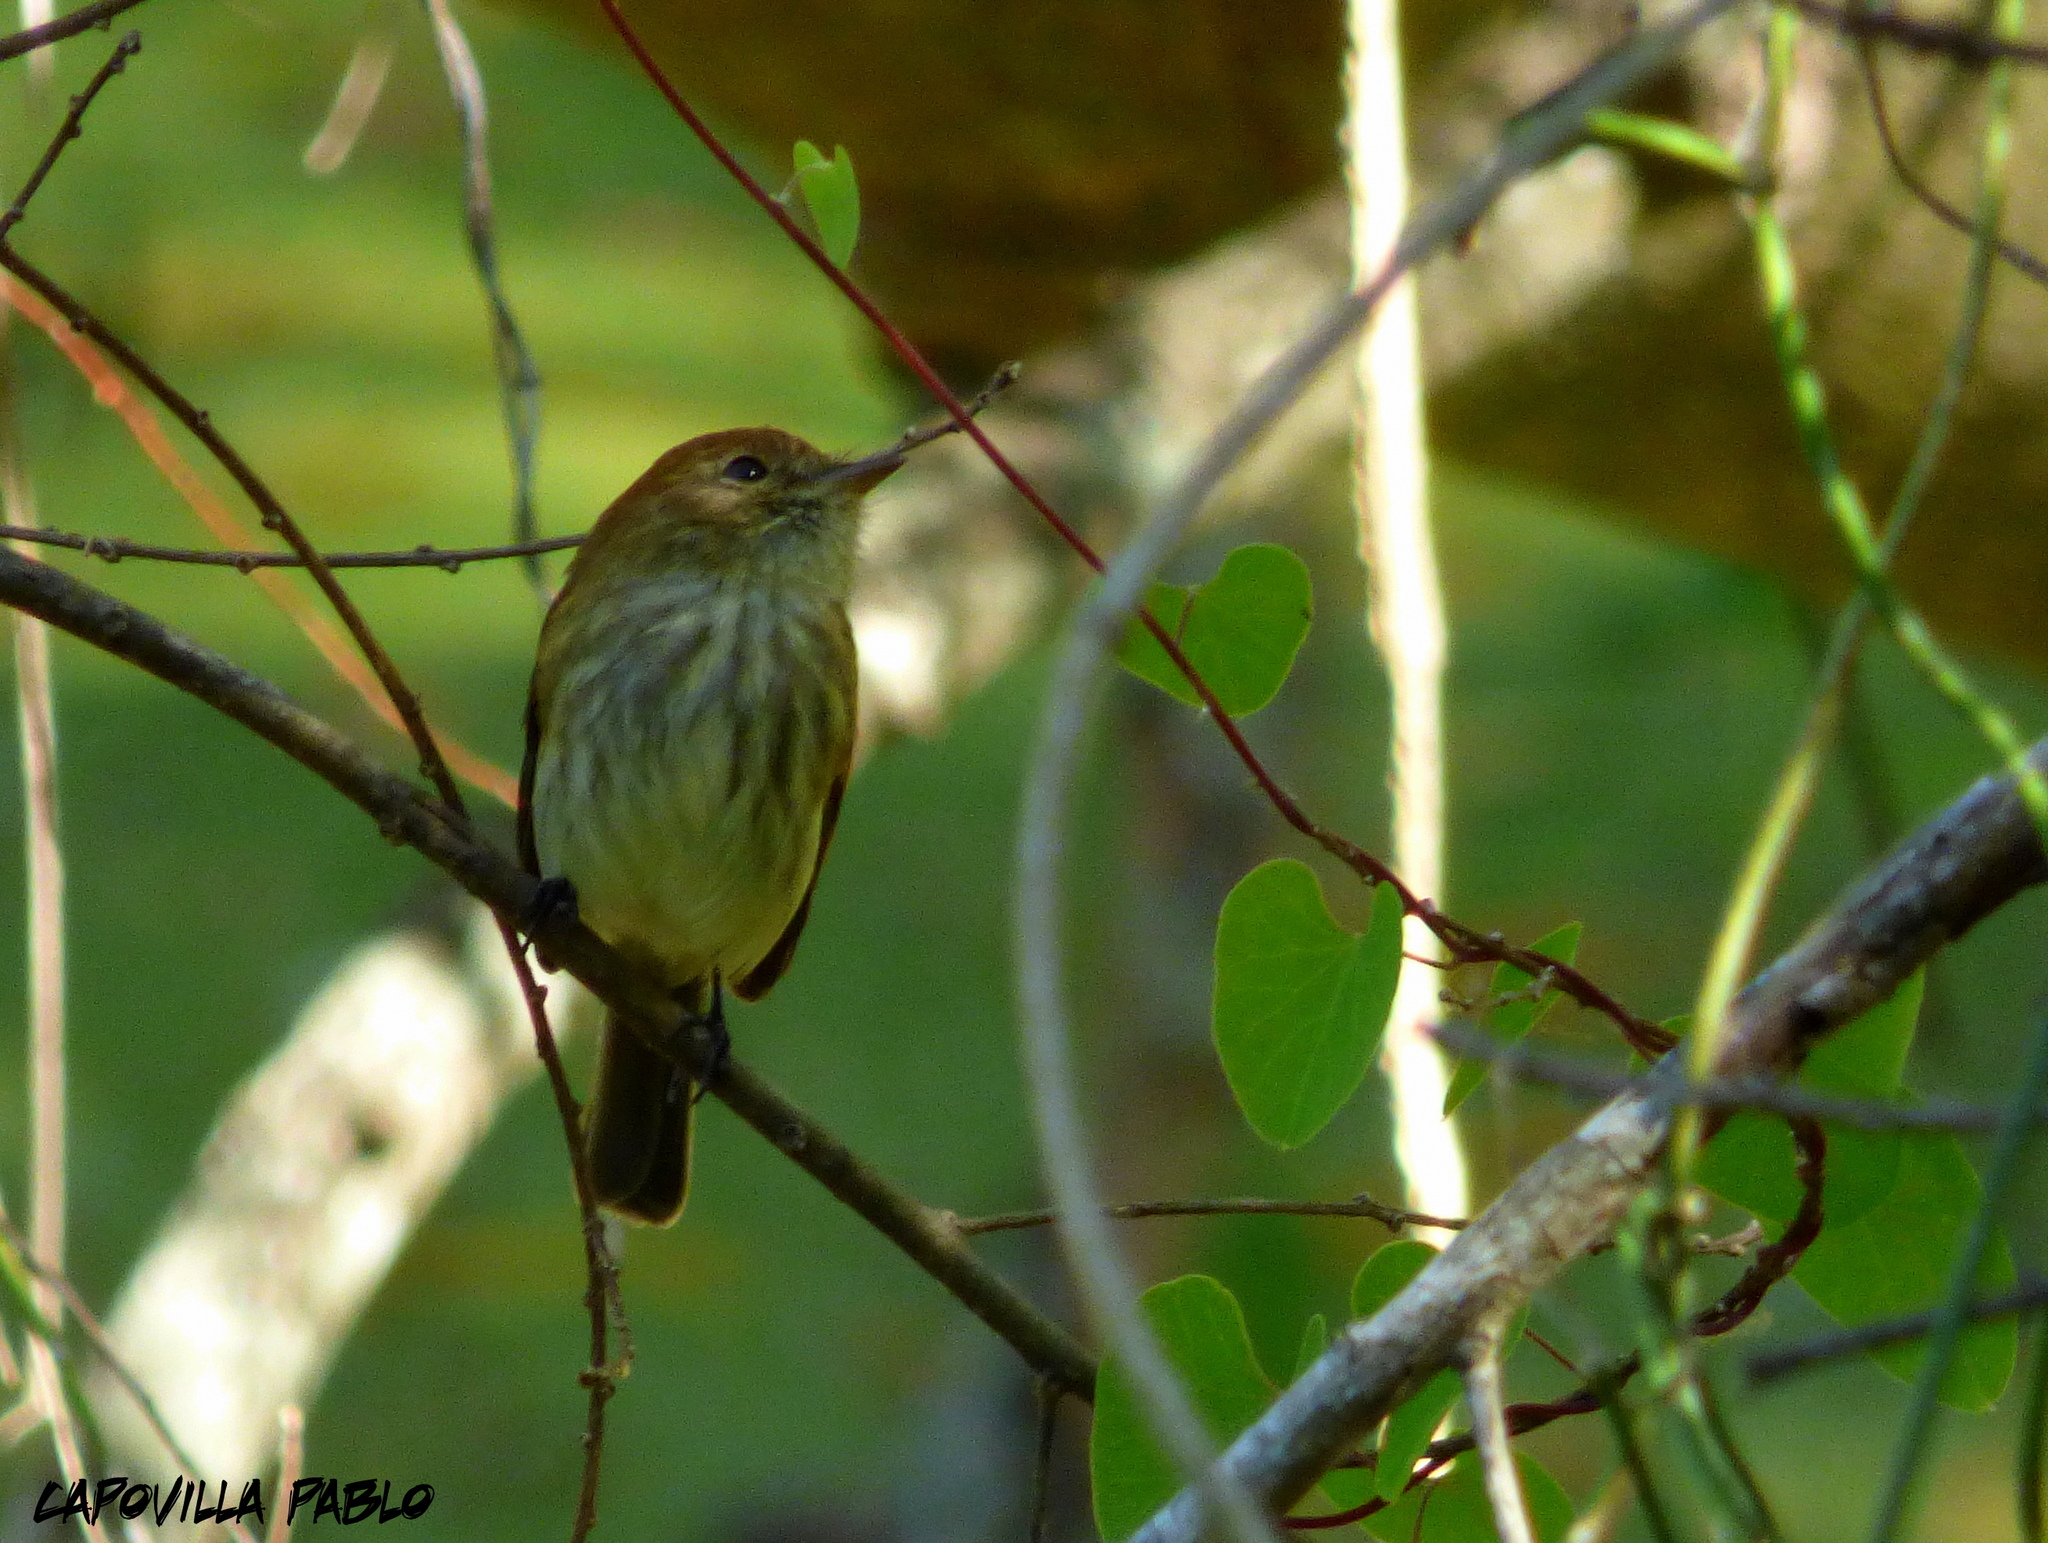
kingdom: Animalia
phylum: Chordata
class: Aves
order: Passeriformes
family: Tyrannidae
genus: Myiophobus
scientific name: Myiophobus fasciatus
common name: Bran-colored flycatcher
